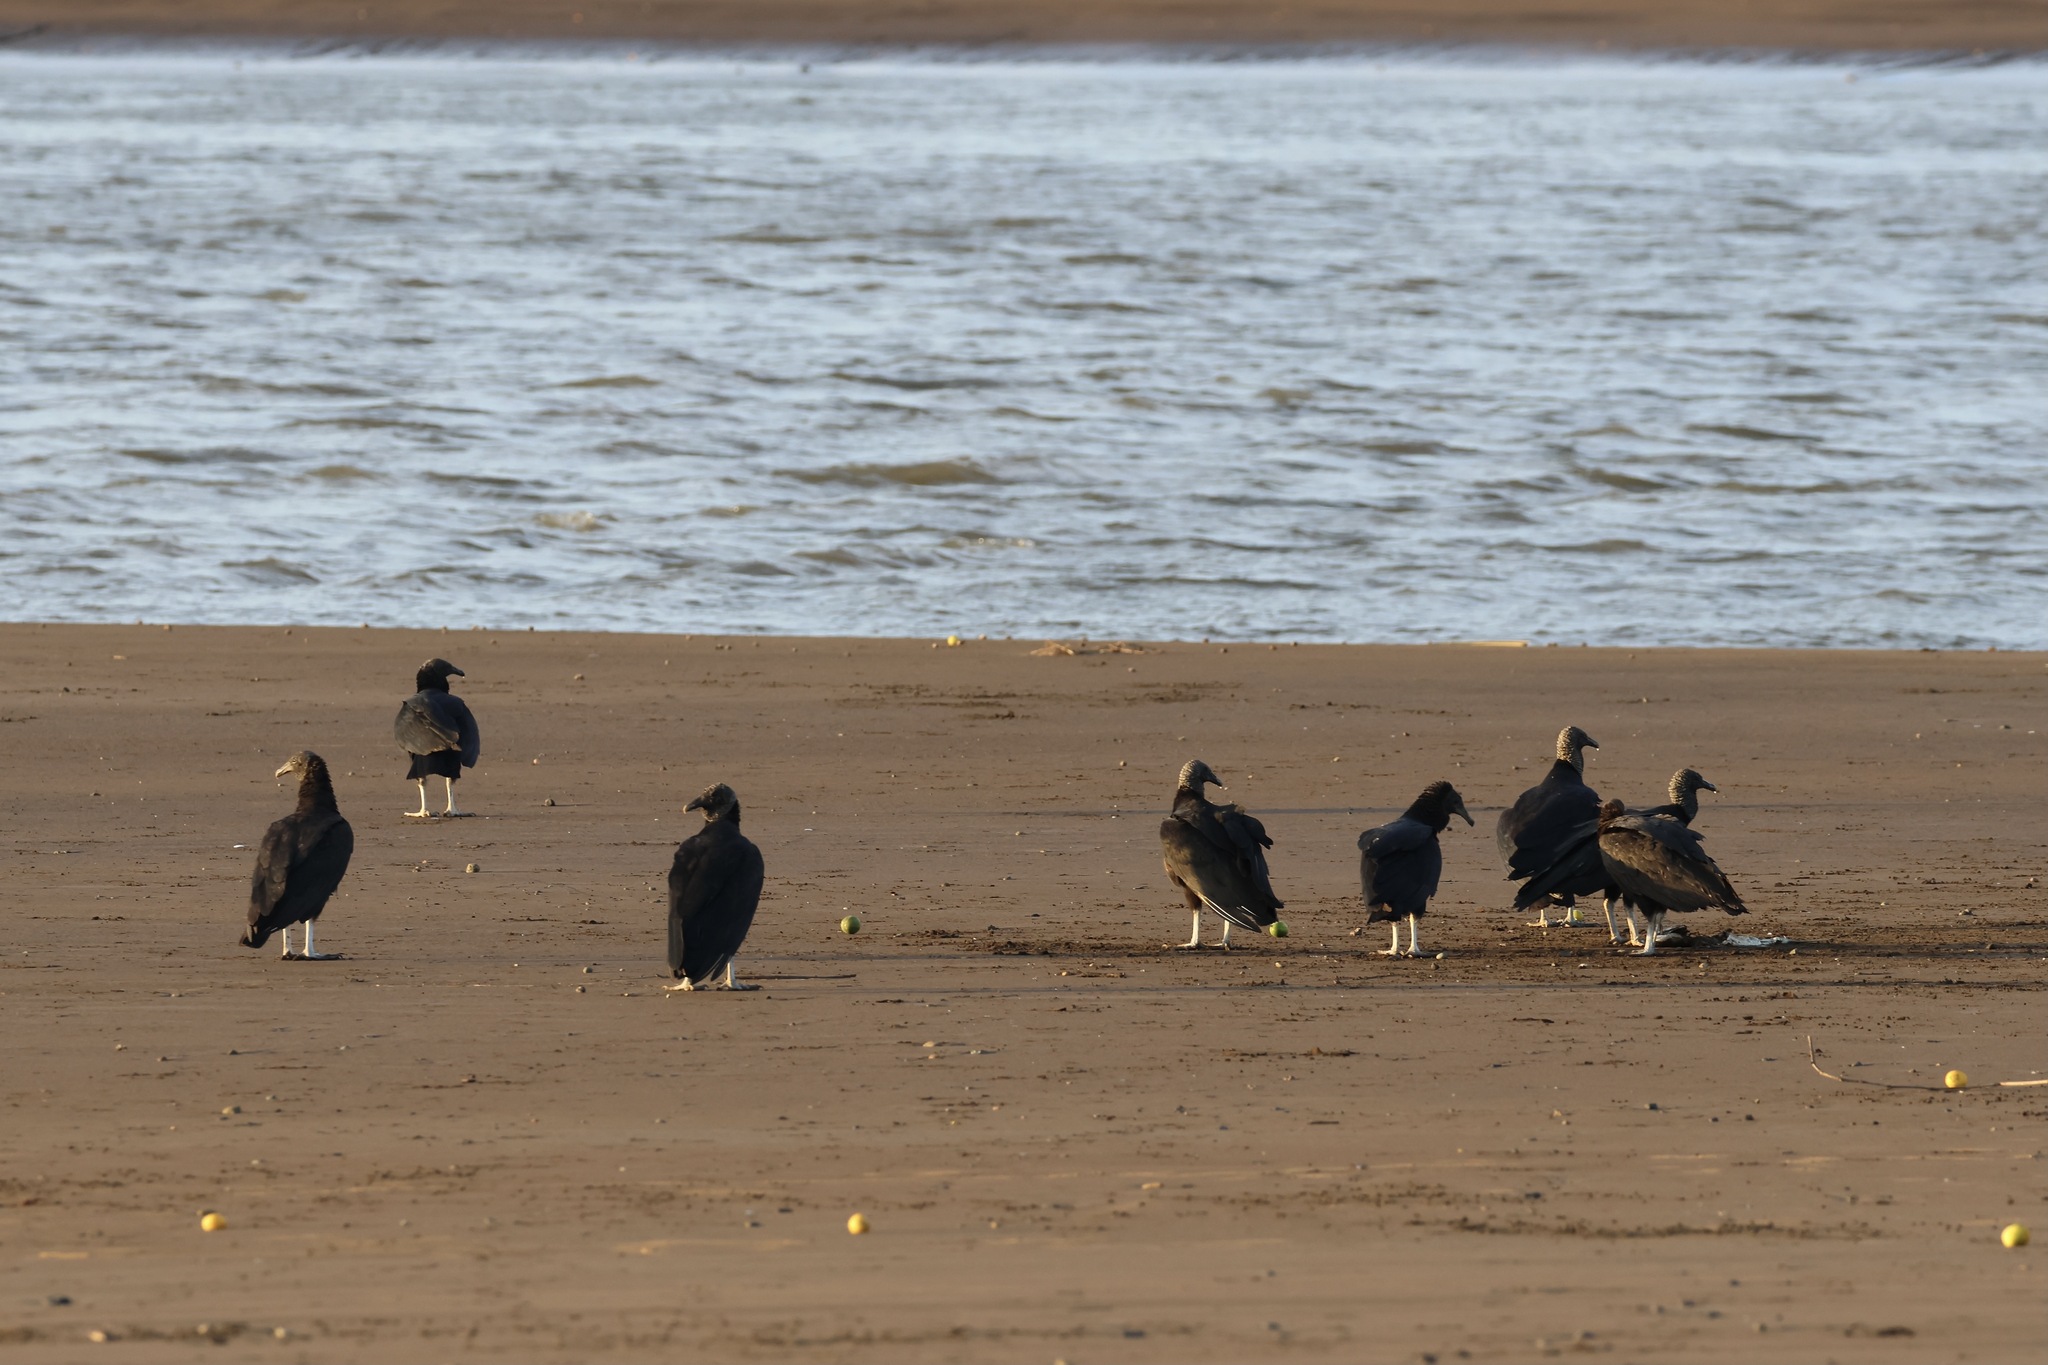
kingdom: Animalia
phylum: Chordata
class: Aves
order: Accipitriformes
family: Cathartidae
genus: Coragyps
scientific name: Coragyps atratus
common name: Black vulture
